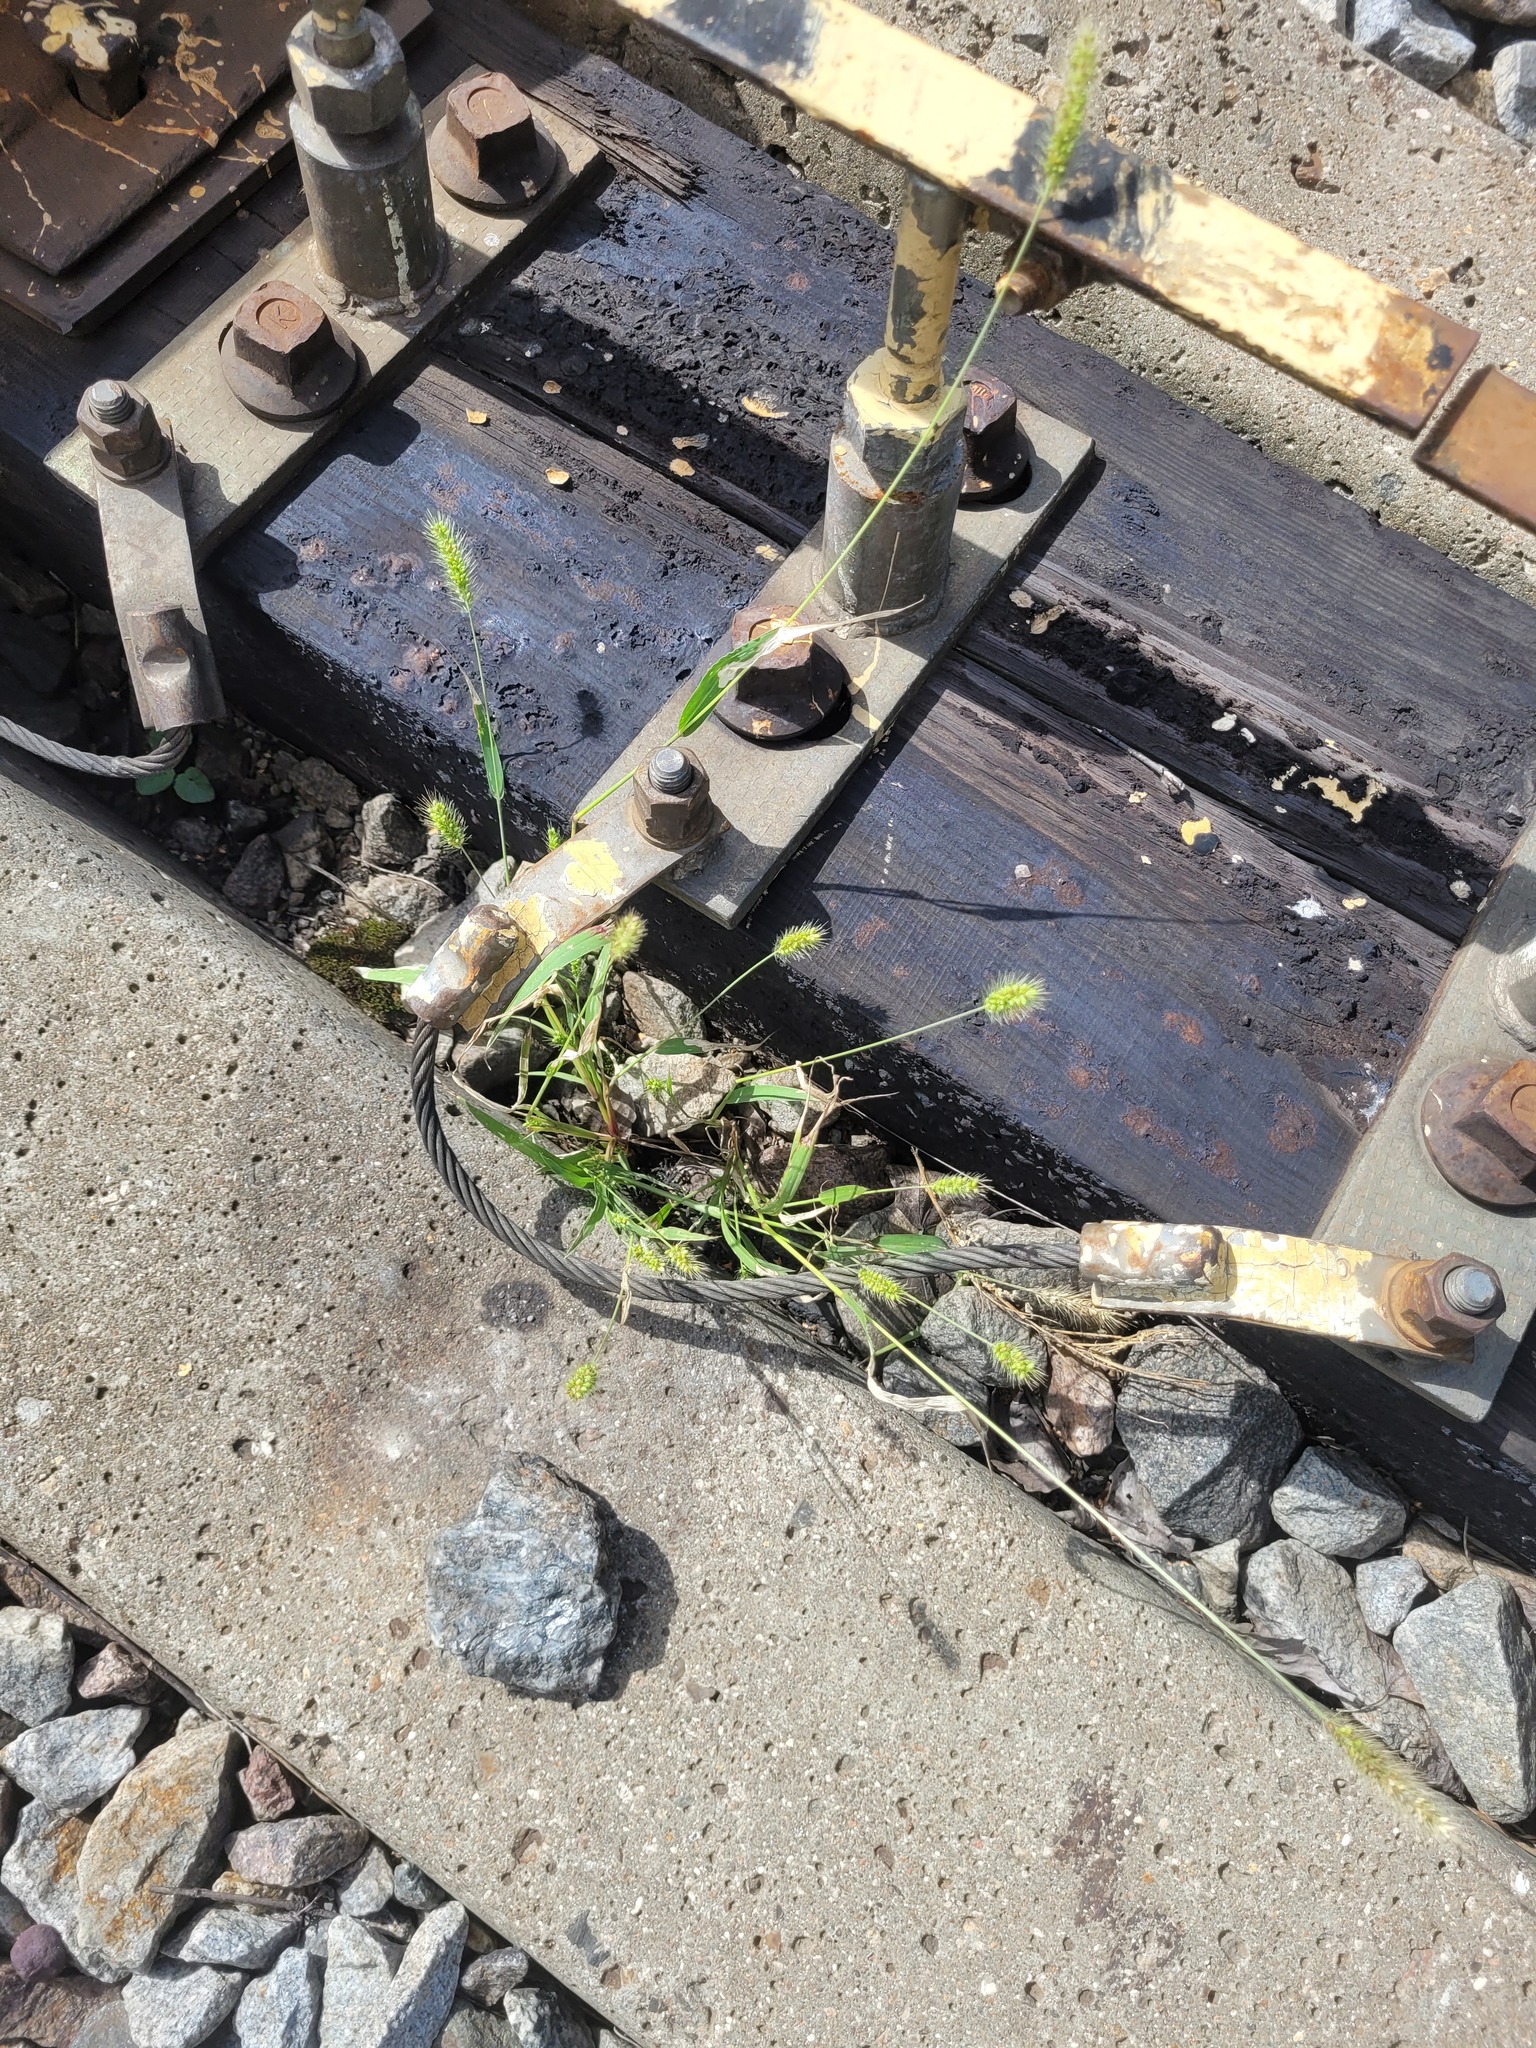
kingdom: Plantae
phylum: Tracheophyta
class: Liliopsida
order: Poales
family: Poaceae
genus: Setaria
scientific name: Setaria viridis
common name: Green bristlegrass
